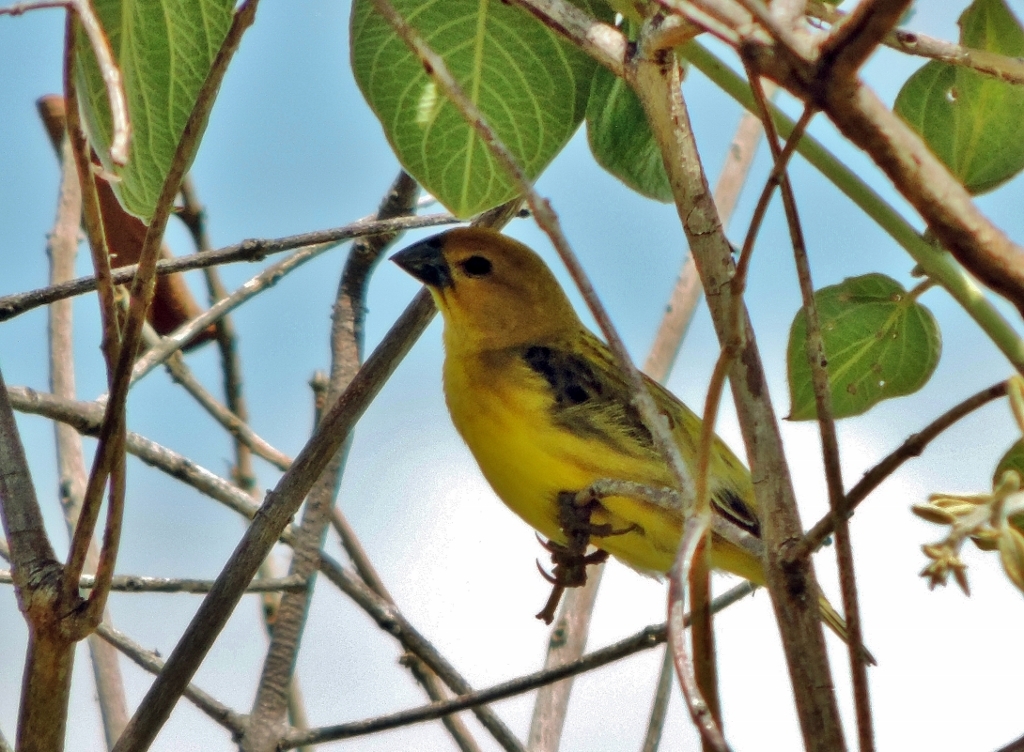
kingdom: Animalia
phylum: Chordata
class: Aves
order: Passeriformes
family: Viduidae
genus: Anomalospiza
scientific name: Anomalospiza imberbis
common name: Cuckoo weaver
